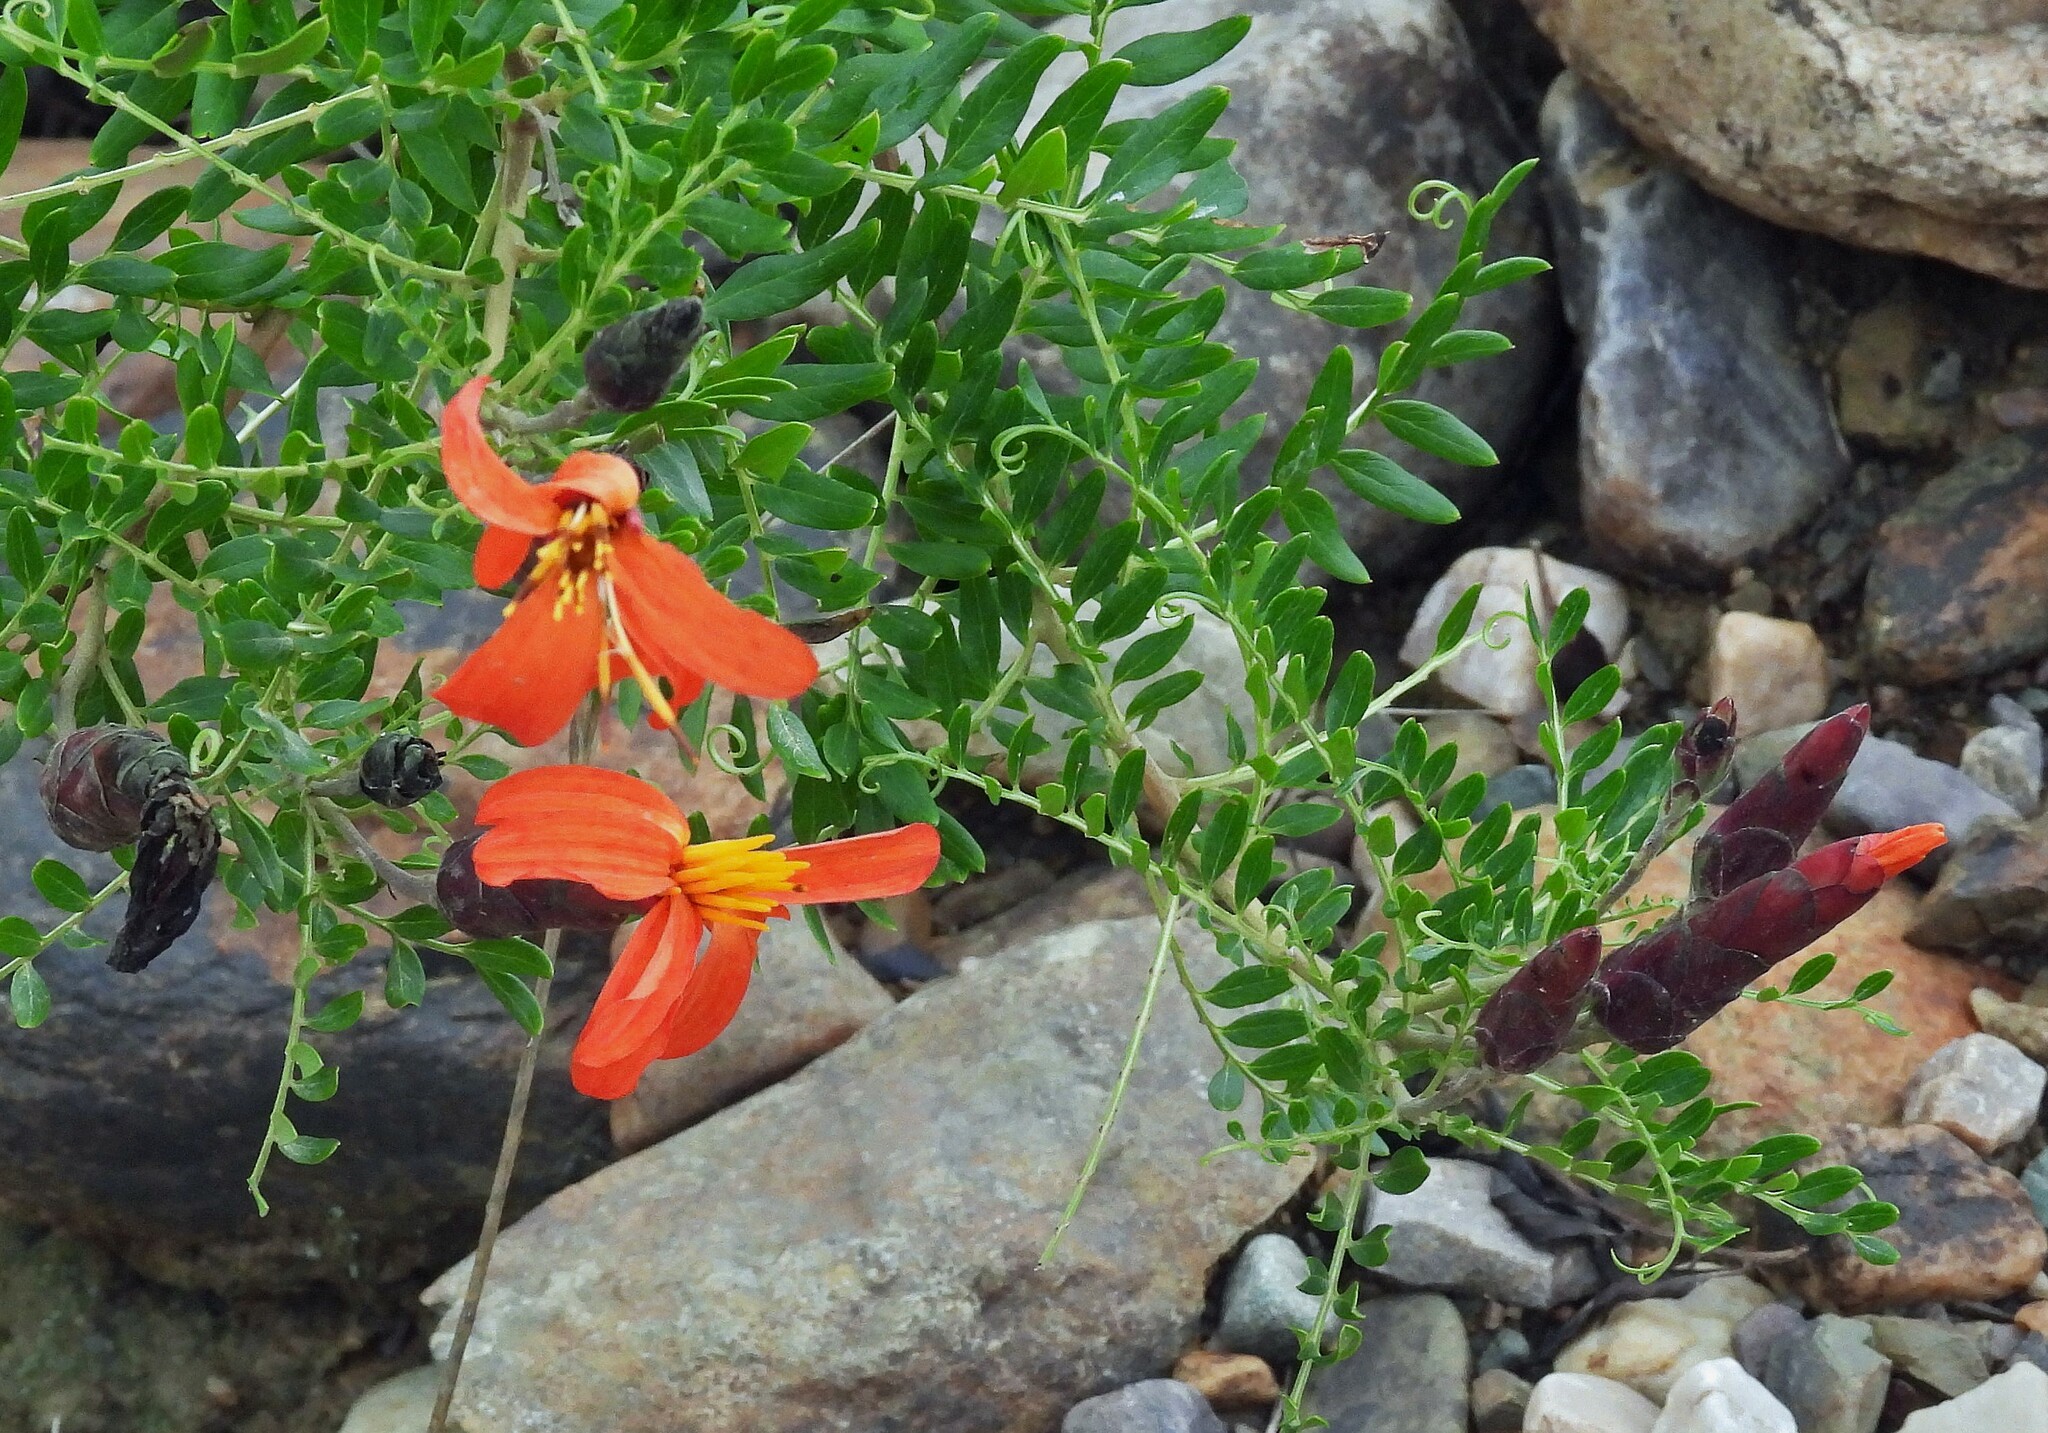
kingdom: Plantae
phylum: Tracheophyta
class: Magnoliopsida
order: Asterales
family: Asteraceae
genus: Mutisia
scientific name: Mutisia acuminata
